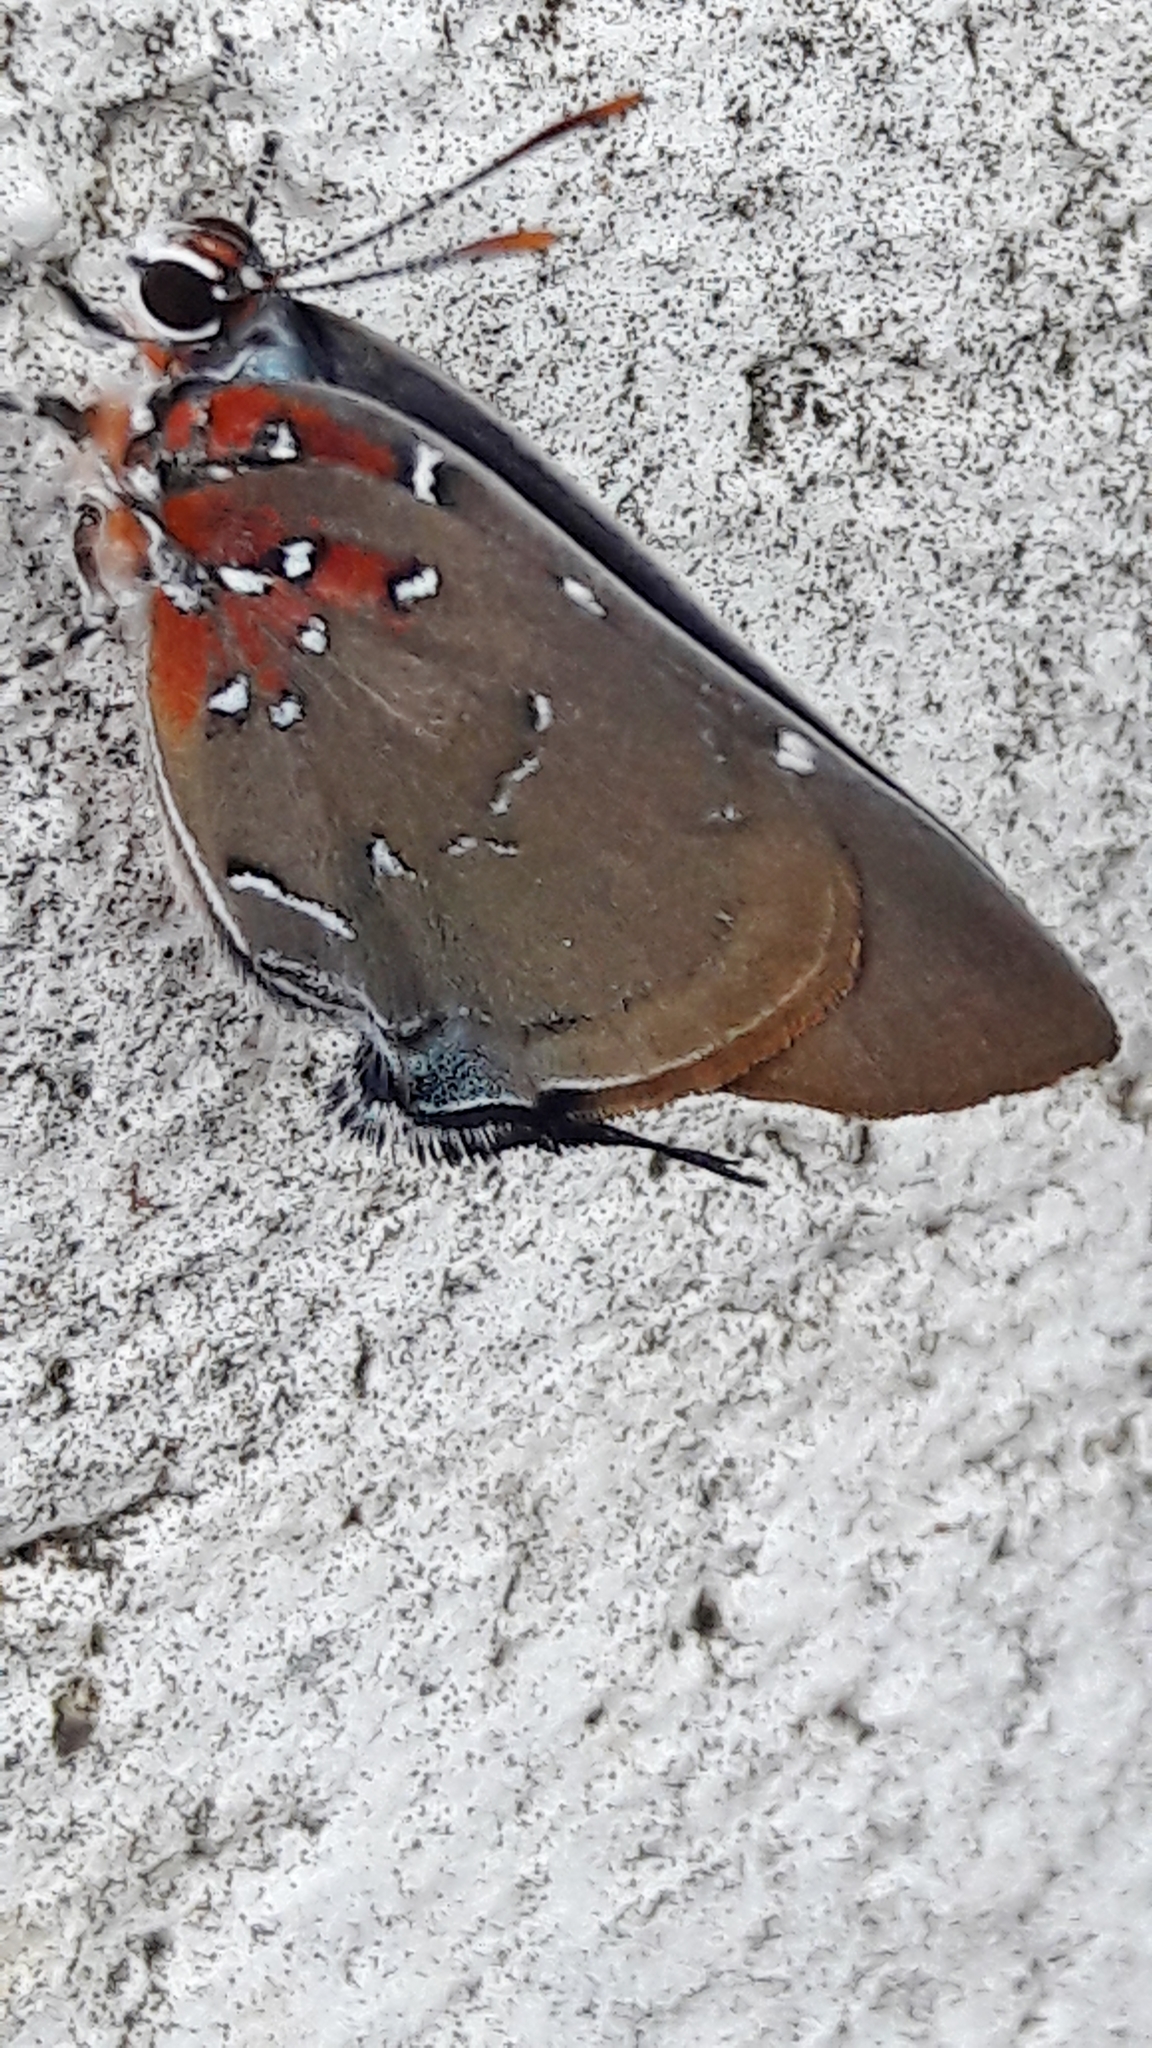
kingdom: Animalia
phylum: Arthropoda
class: Insecta
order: Lepidoptera
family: Lycaenidae
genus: Atlides
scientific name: Atlides Brangas neora
